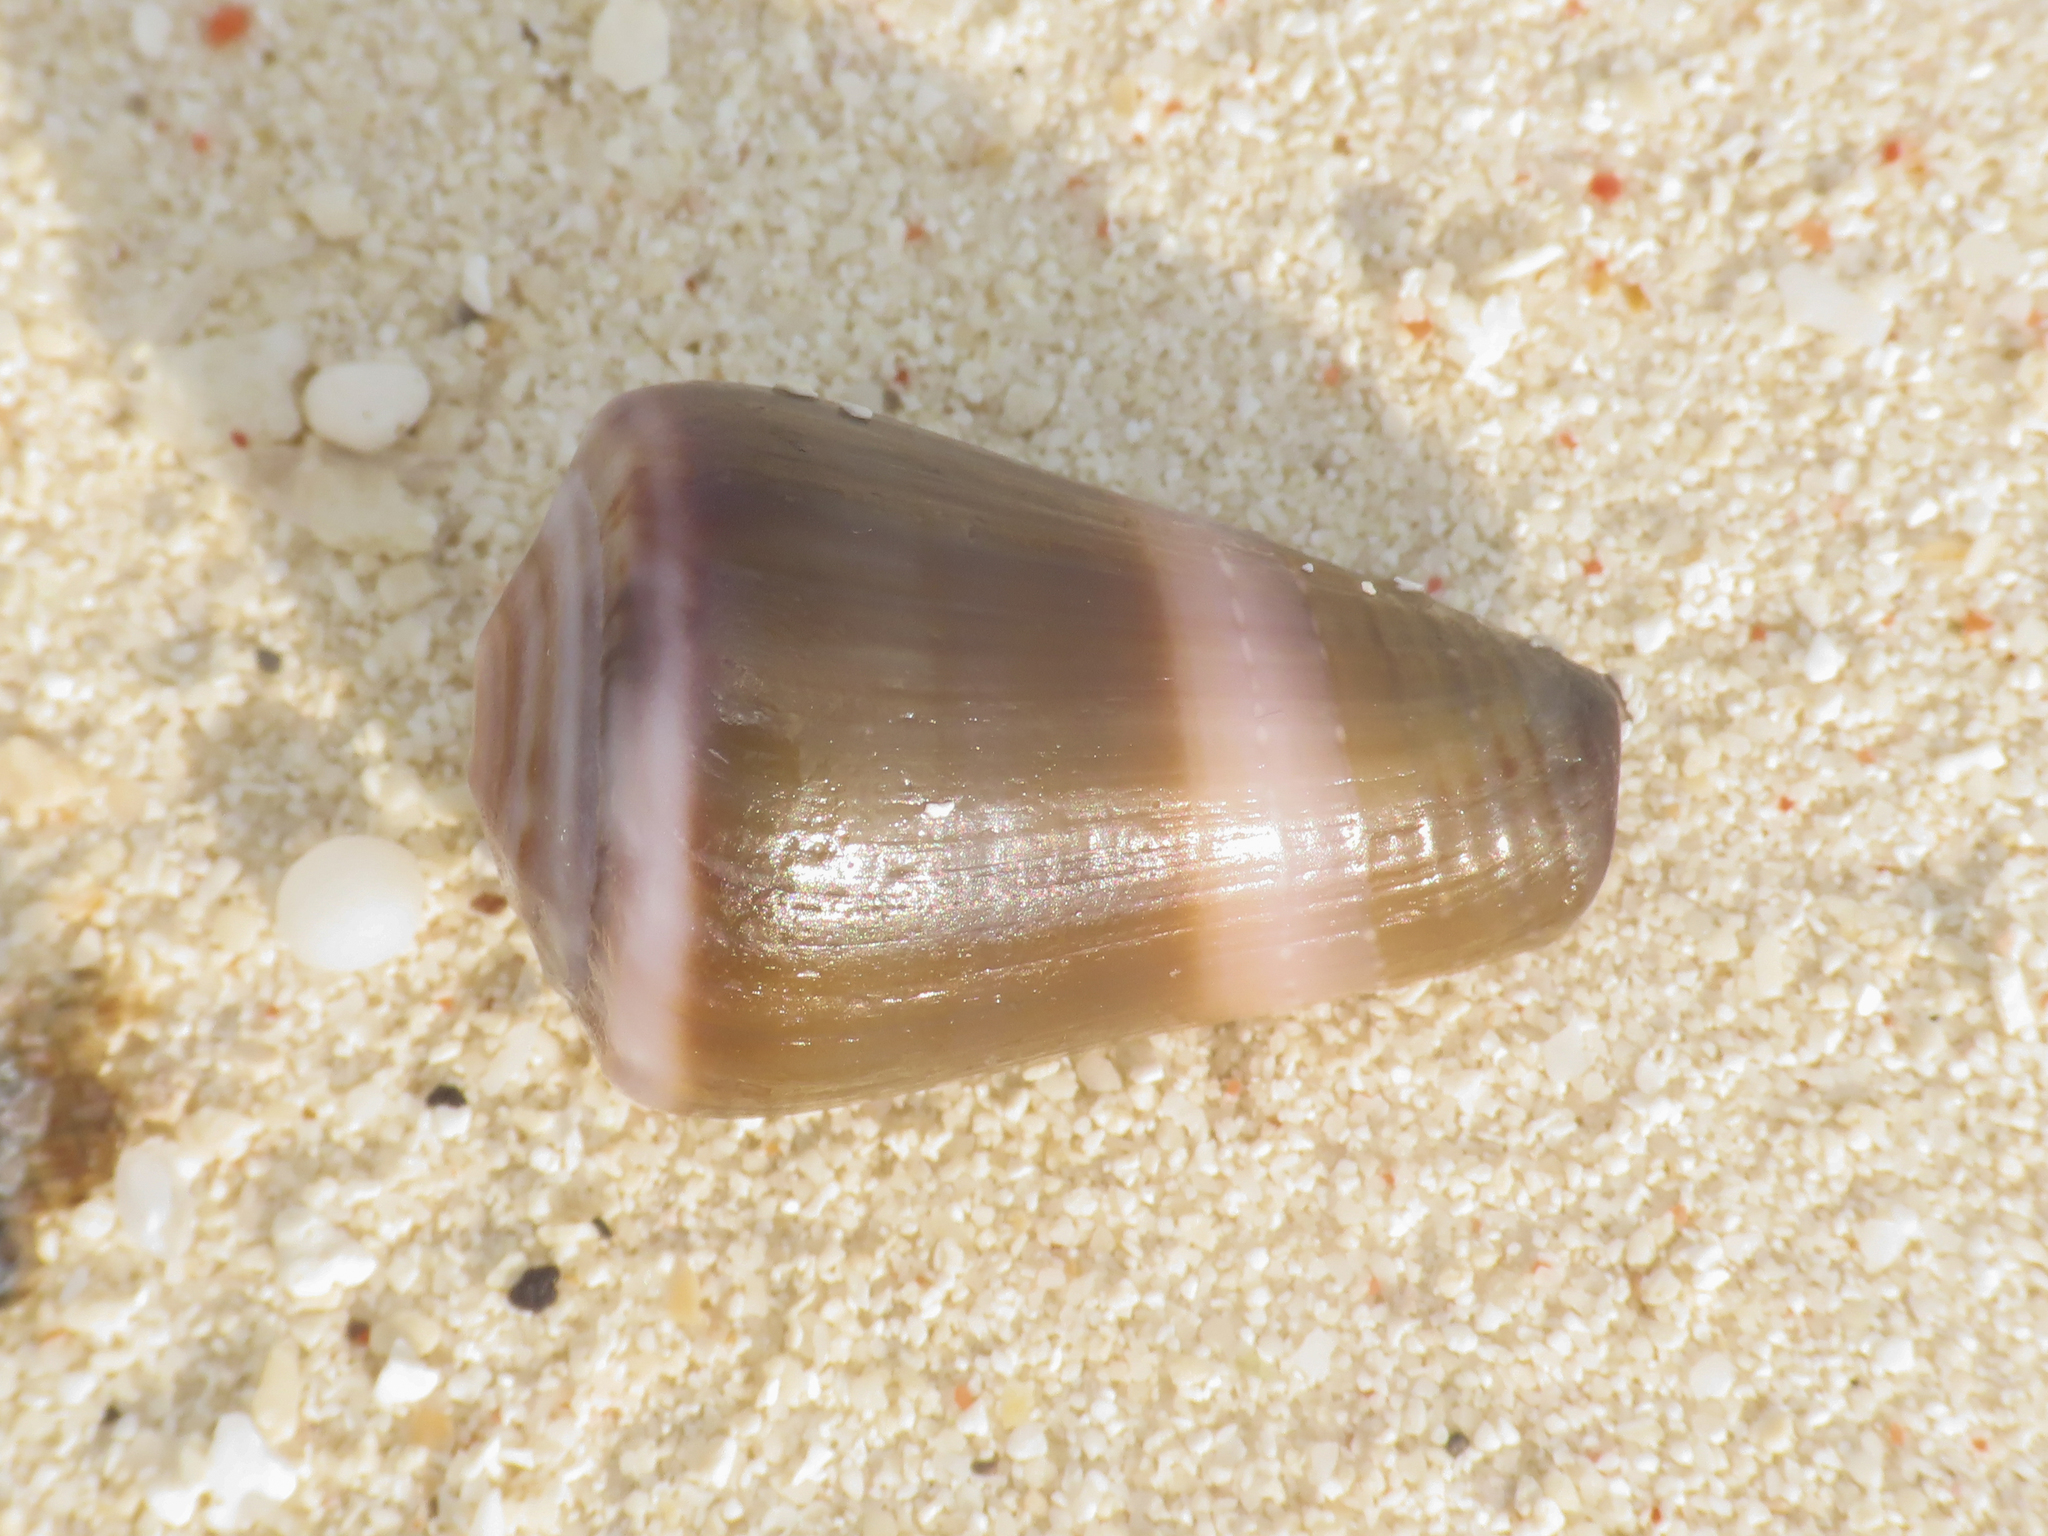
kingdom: Animalia
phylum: Mollusca
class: Gastropoda
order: Neogastropoda
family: Conidae
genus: Conus
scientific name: Conus lividus
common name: Livid cone
